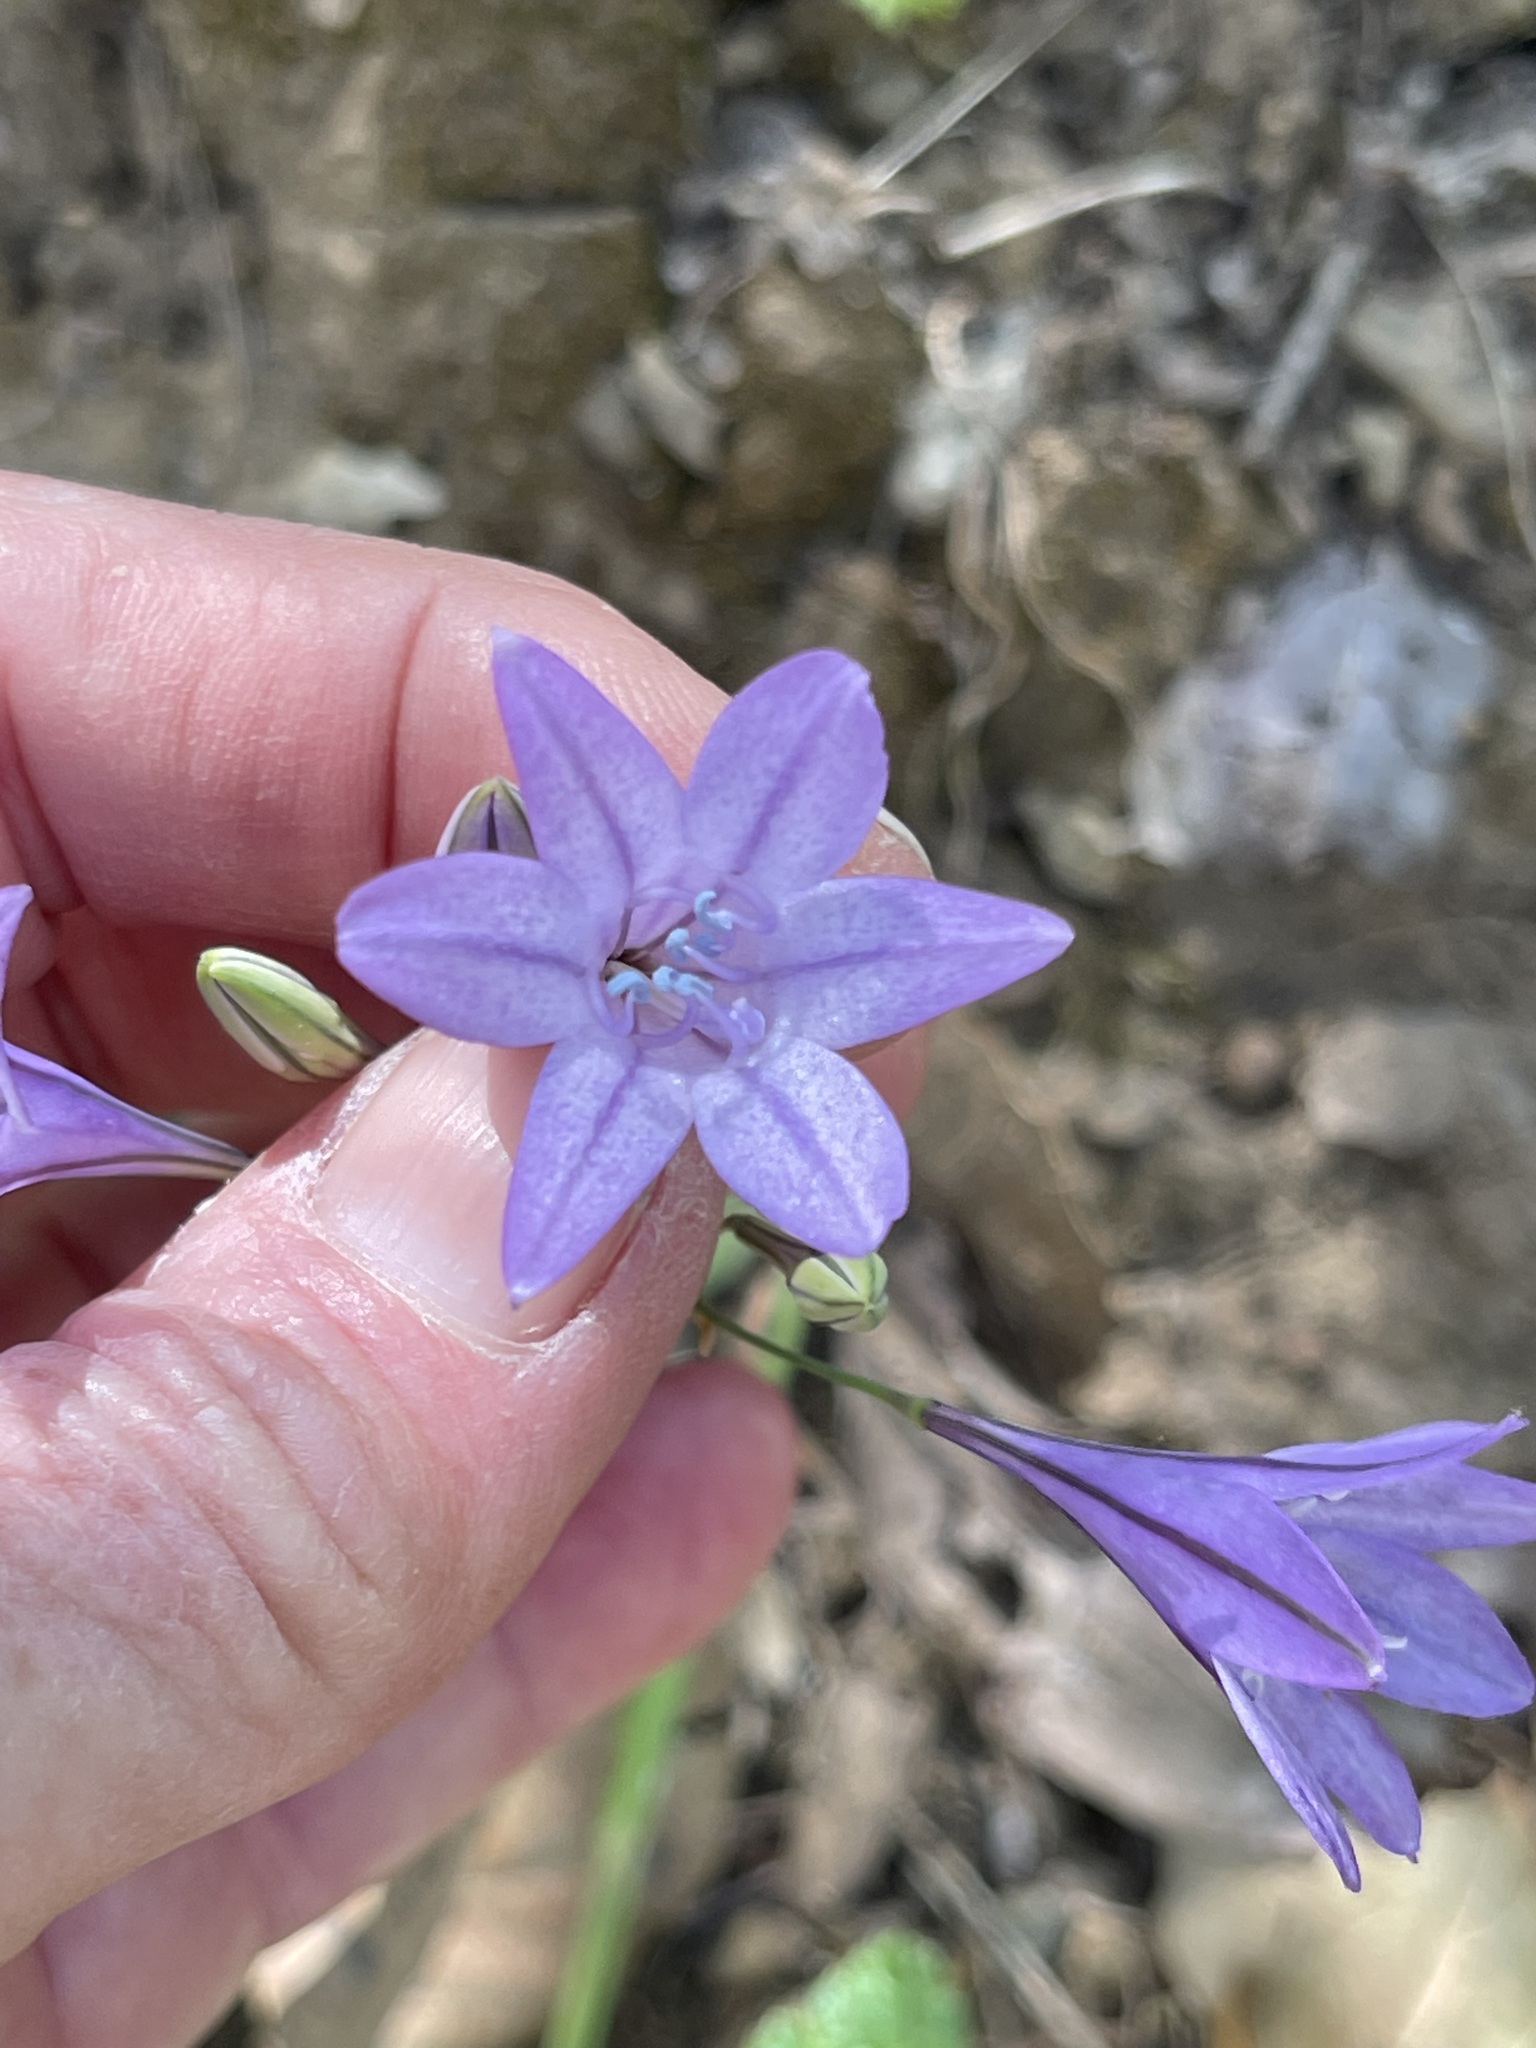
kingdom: Plantae
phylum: Tracheophyta
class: Liliopsida
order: Asparagales
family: Asparagaceae
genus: Triteleia
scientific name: Triteleia laxa
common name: Triplet-lily
